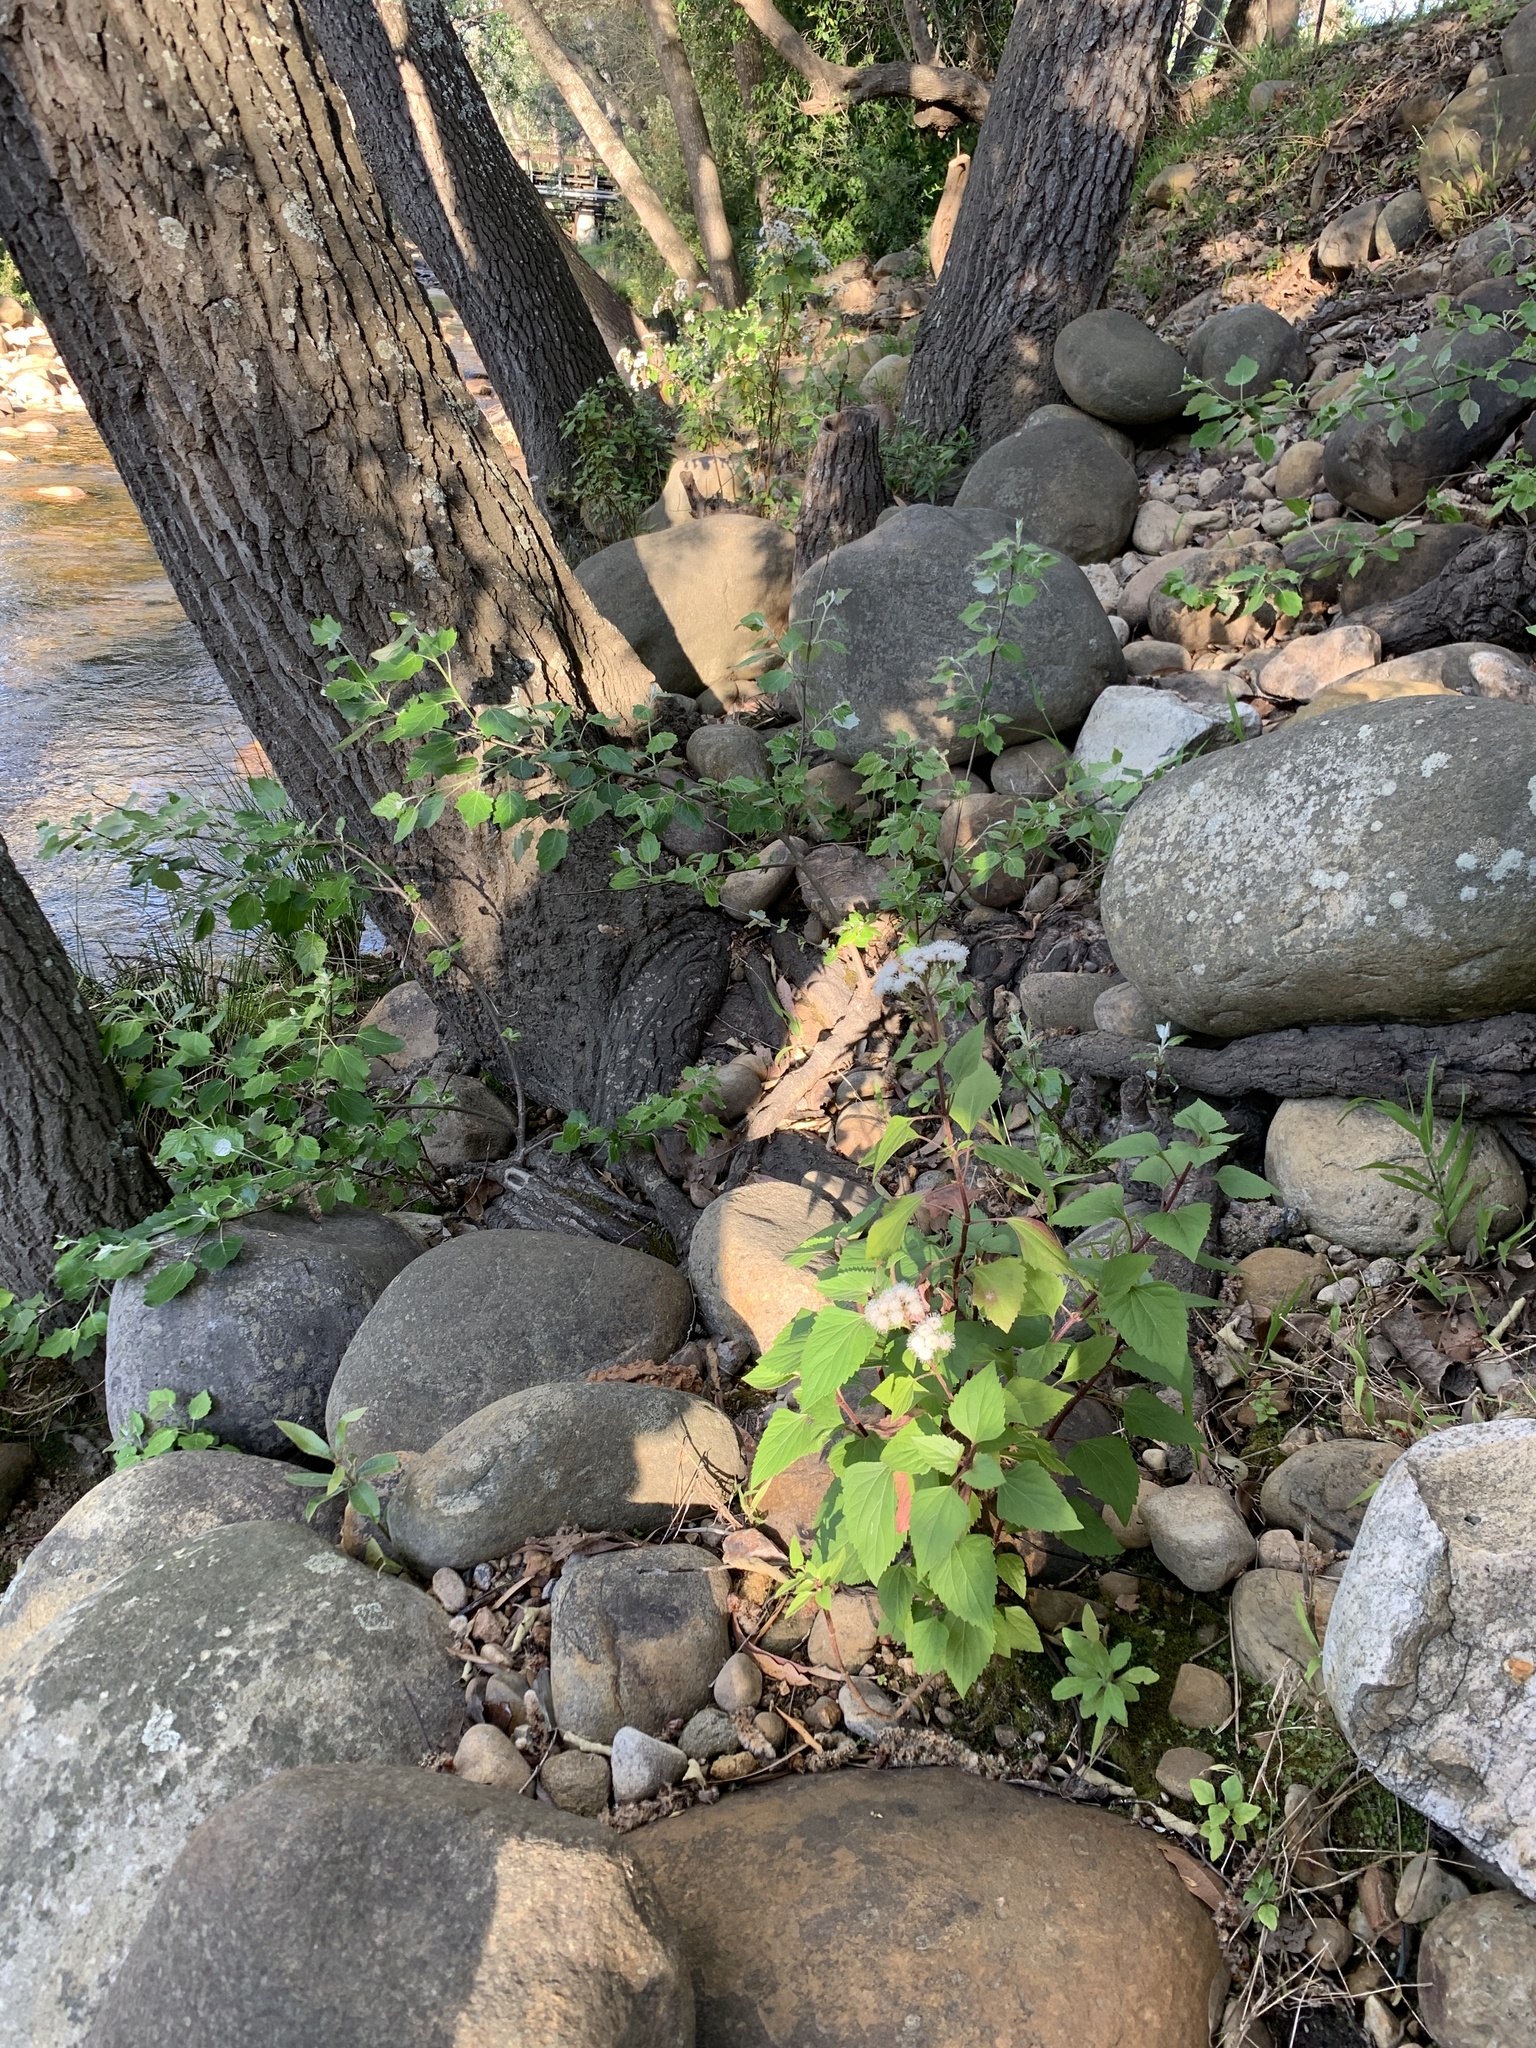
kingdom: Plantae
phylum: Tracheophyta
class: Magnoliopsida
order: Asterales
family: Asteraceae
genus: Ageratina
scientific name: Ageratina adenophora
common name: Sticky snakeroot
